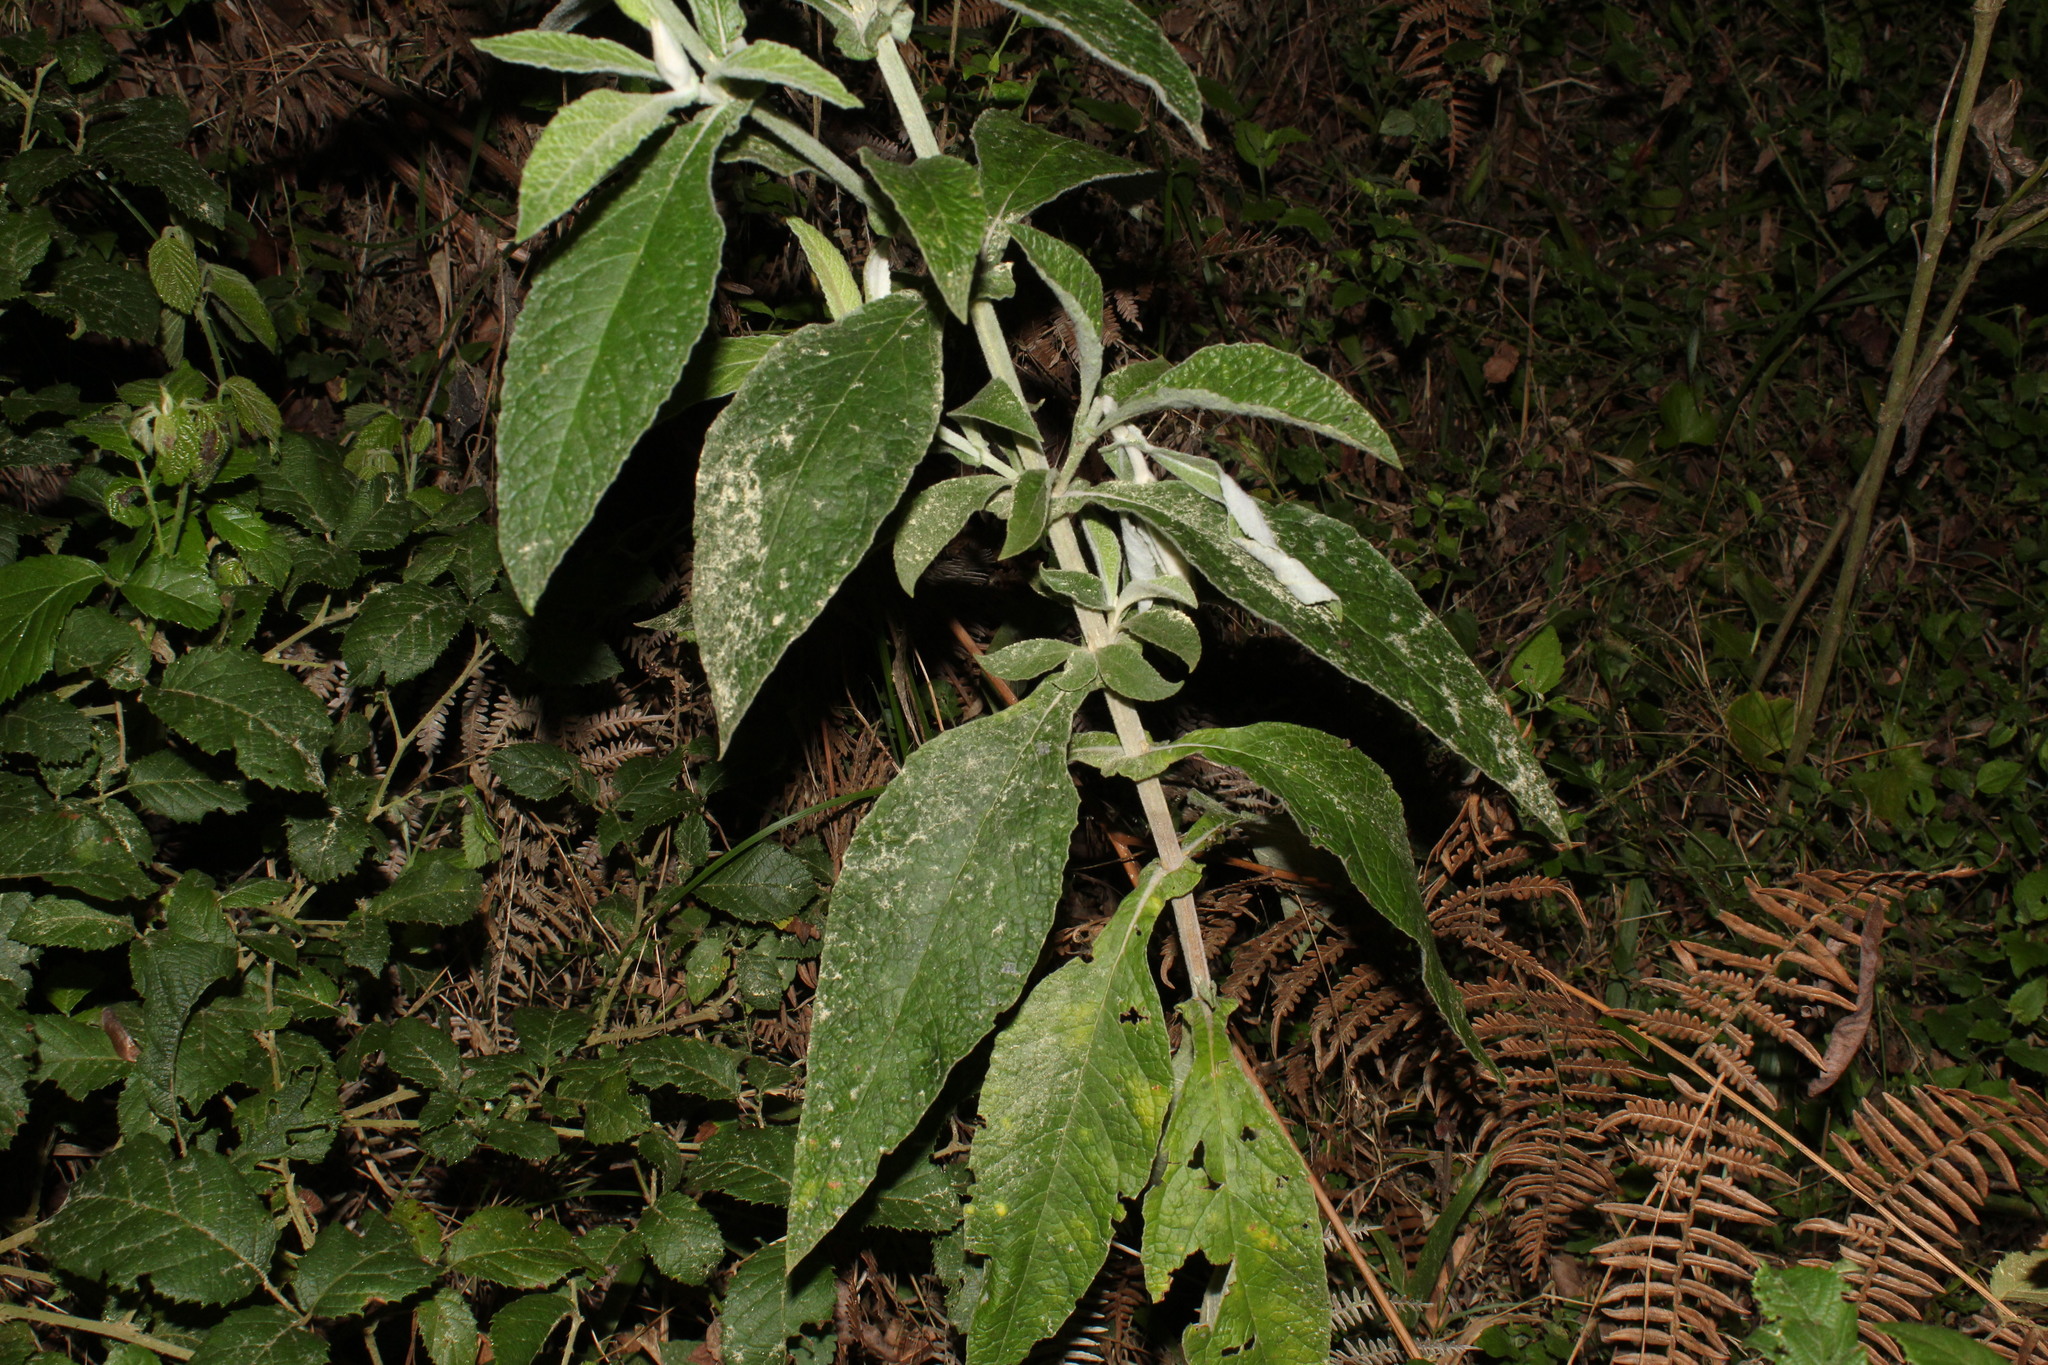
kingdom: Plantae
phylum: Tracheophyta
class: Magnoliopsida
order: Lamiales
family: Scrophulariaceae
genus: Buddleja
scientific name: Buddleja stachyoides
